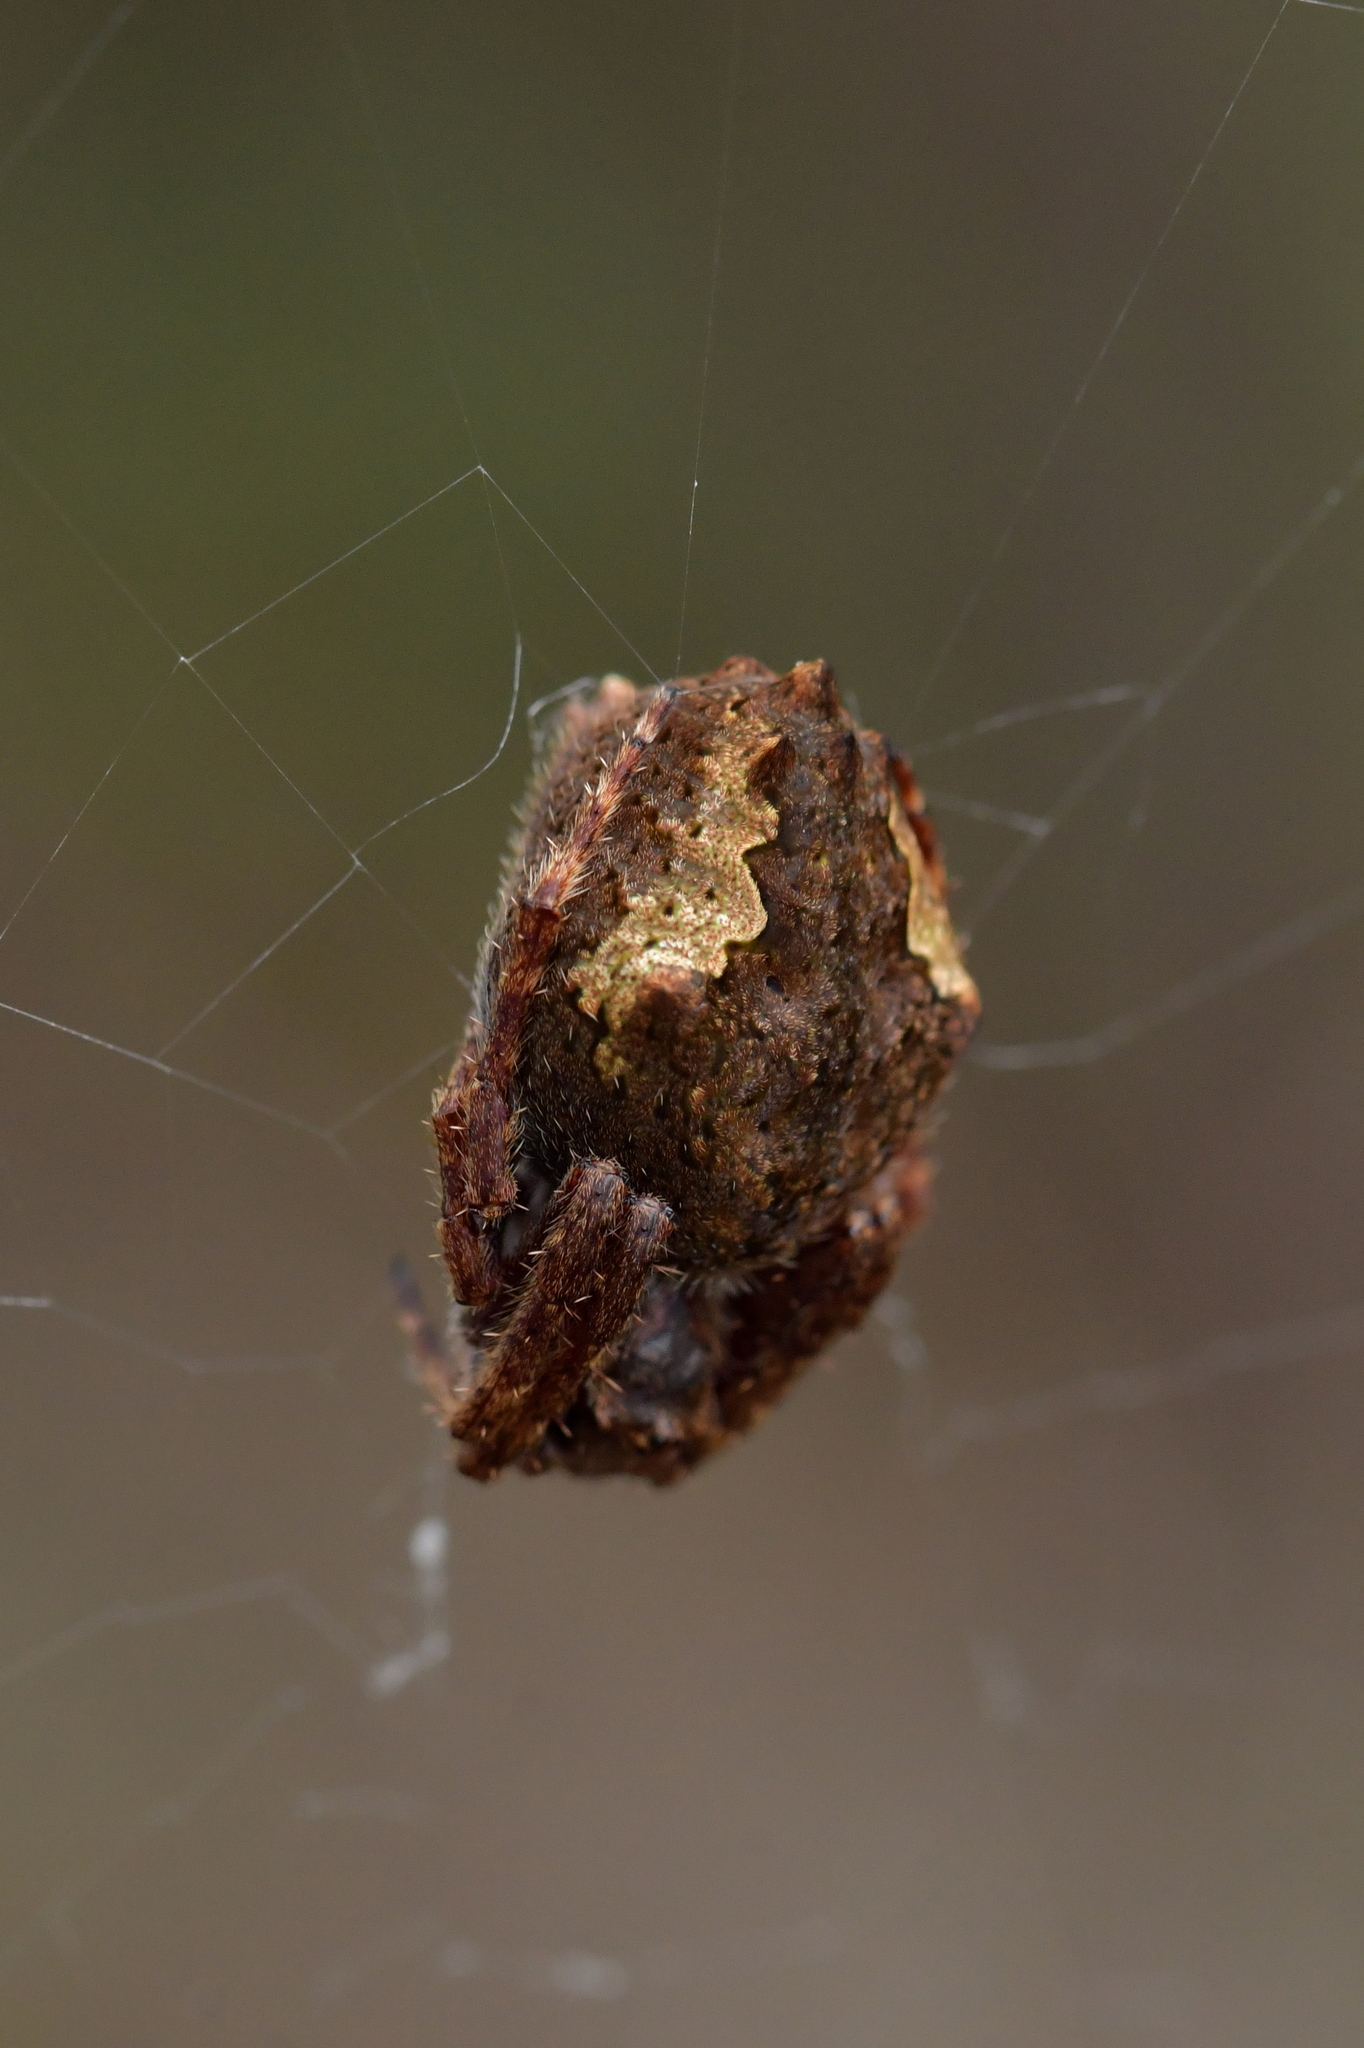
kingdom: Animalia
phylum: Arthropoda
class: Arachnida
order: Araneae
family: Araneidae
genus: Eriophora
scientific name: Eriophora pustulosa
